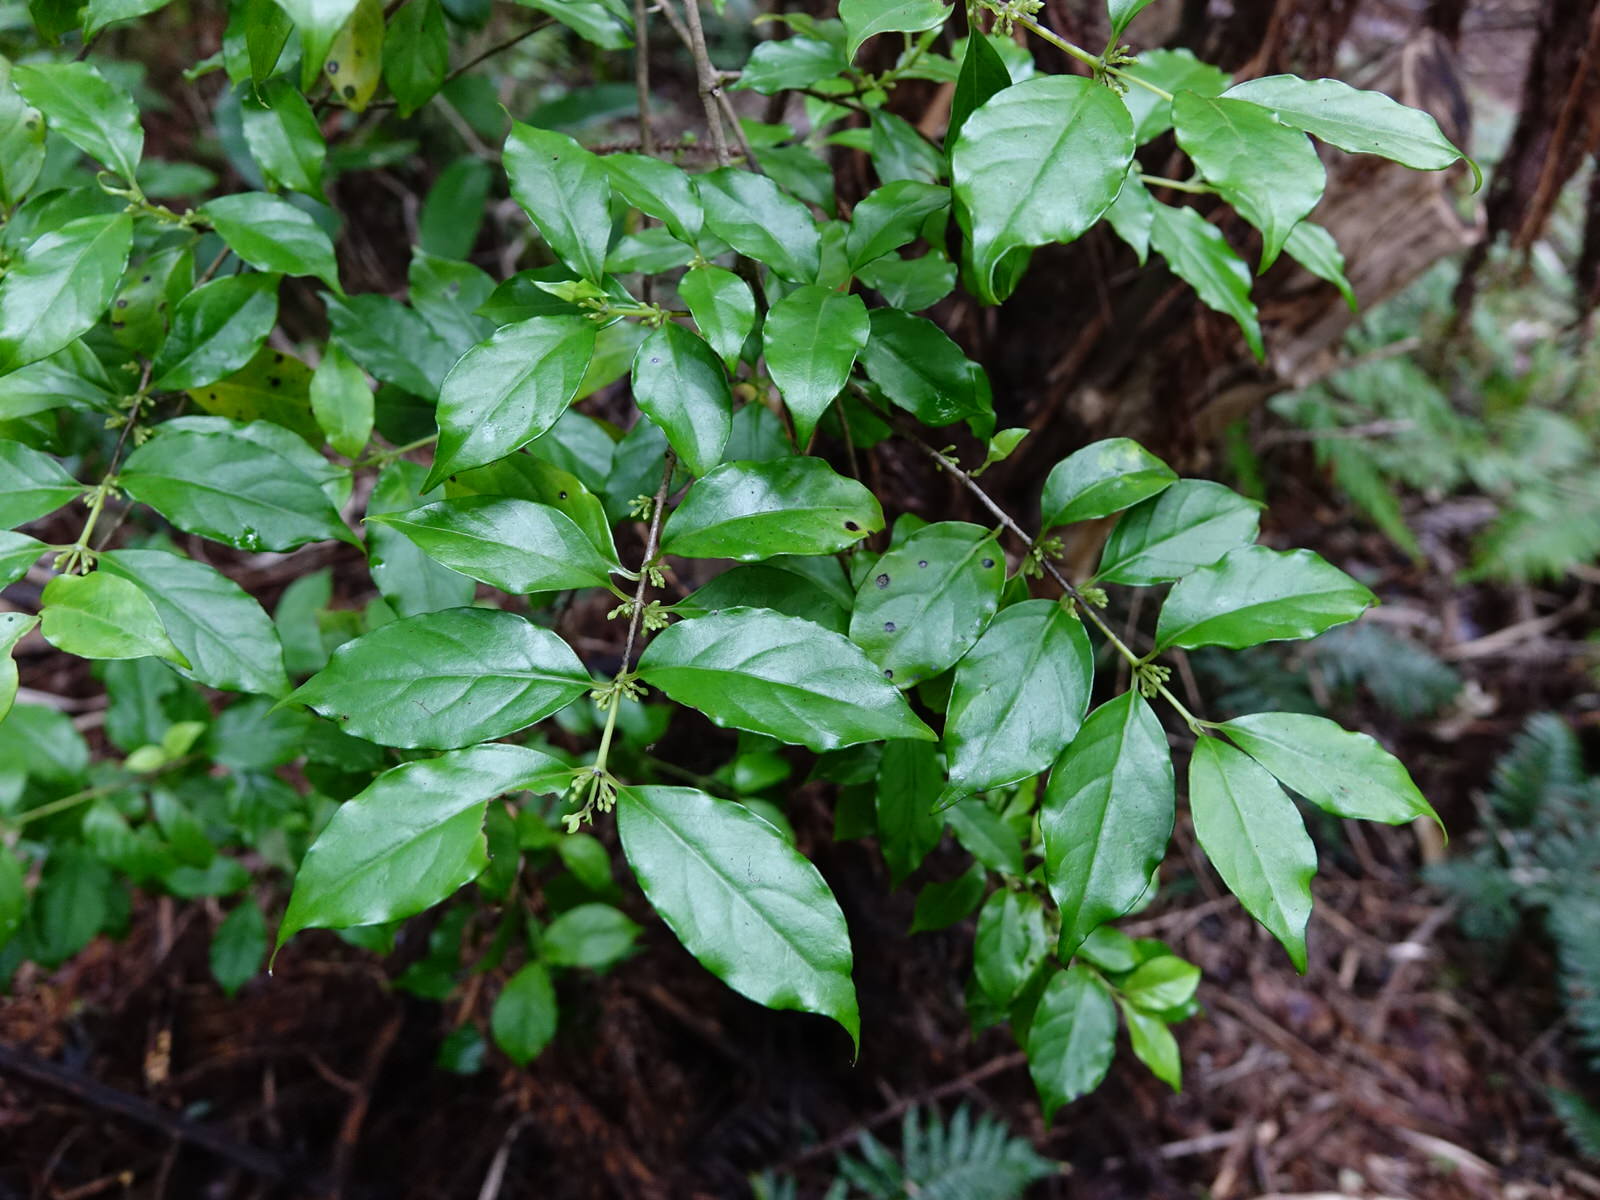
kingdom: Plantae
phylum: Tracheophyta
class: Magnoliopsida
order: Gentianales
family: Loganiaceae
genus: Geniostoma
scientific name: Geniostoma ligustrifolium
